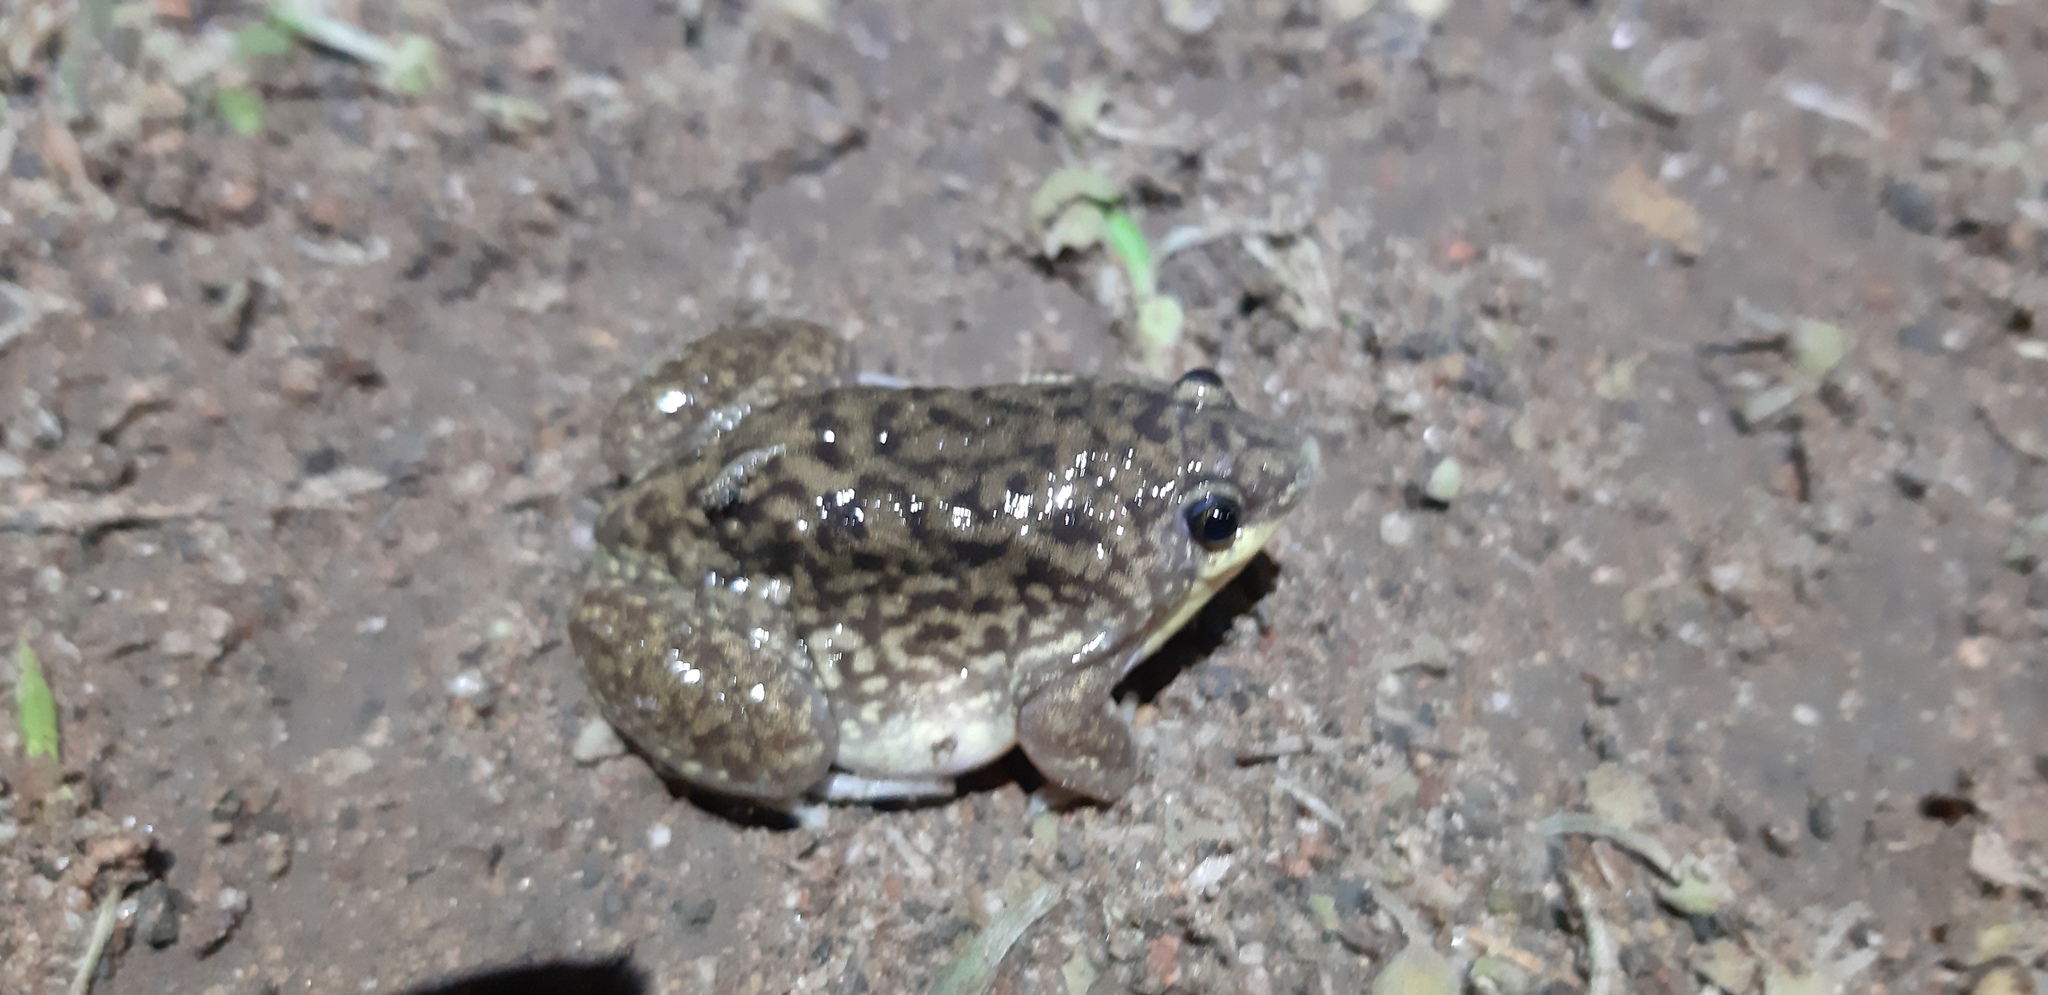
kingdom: Animalia
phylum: Chordata
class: Amphibia
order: Anura
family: Hemisotidae
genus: Hemisus
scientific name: Hemisus marmoratus
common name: Mottled shovel-nosed frog
